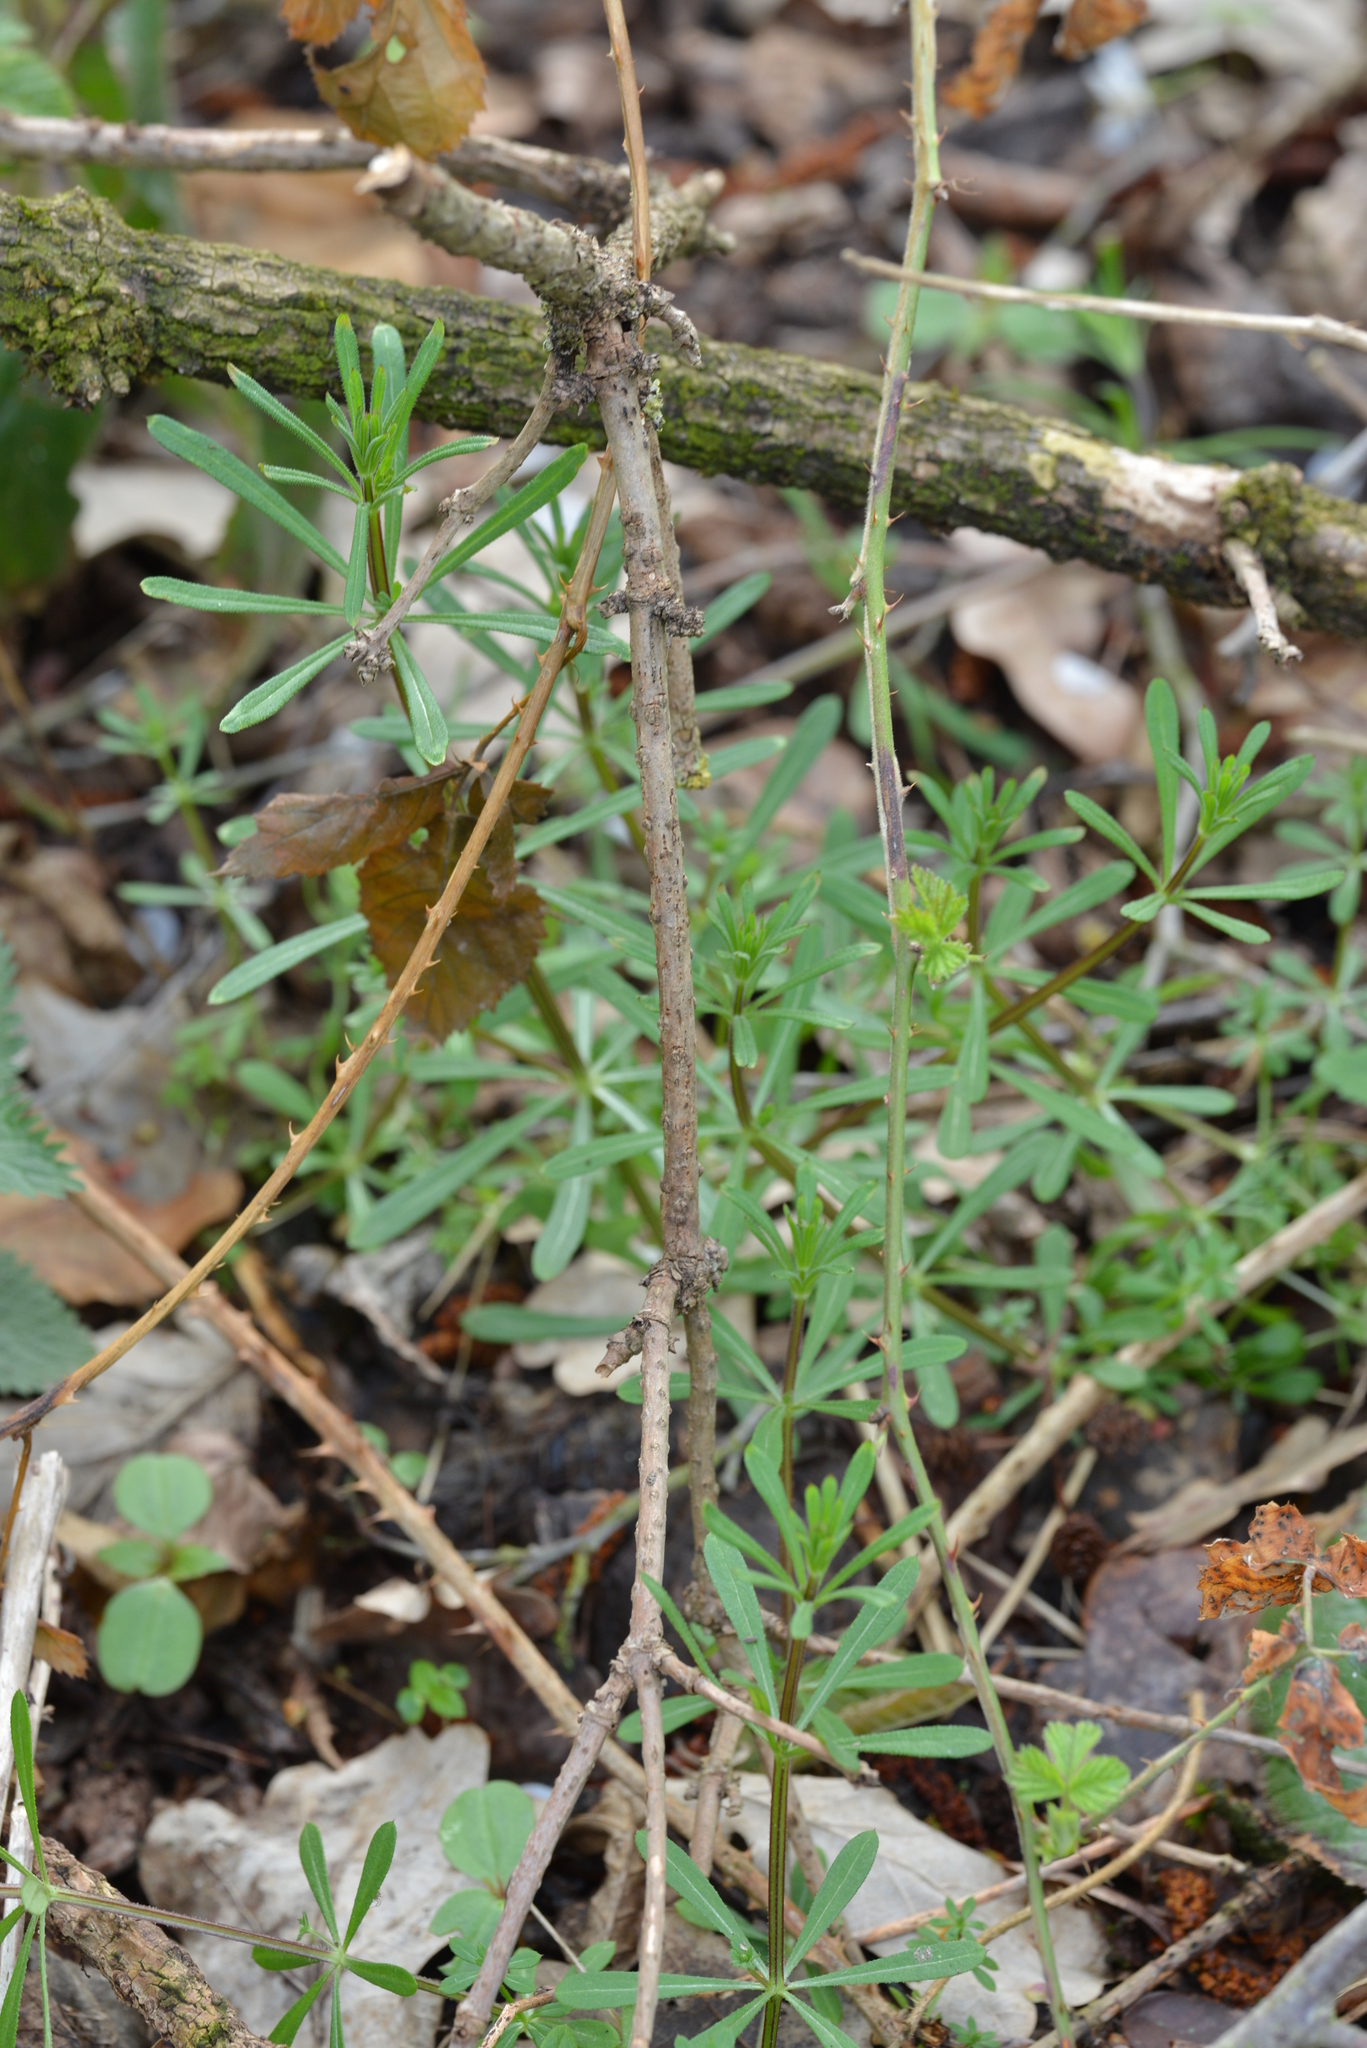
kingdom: Plantae
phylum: Tracheophyta
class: Magnoliopsida
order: Gentianales
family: Rubiaceae
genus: Galium
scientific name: Galium aparine
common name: Cleavers
